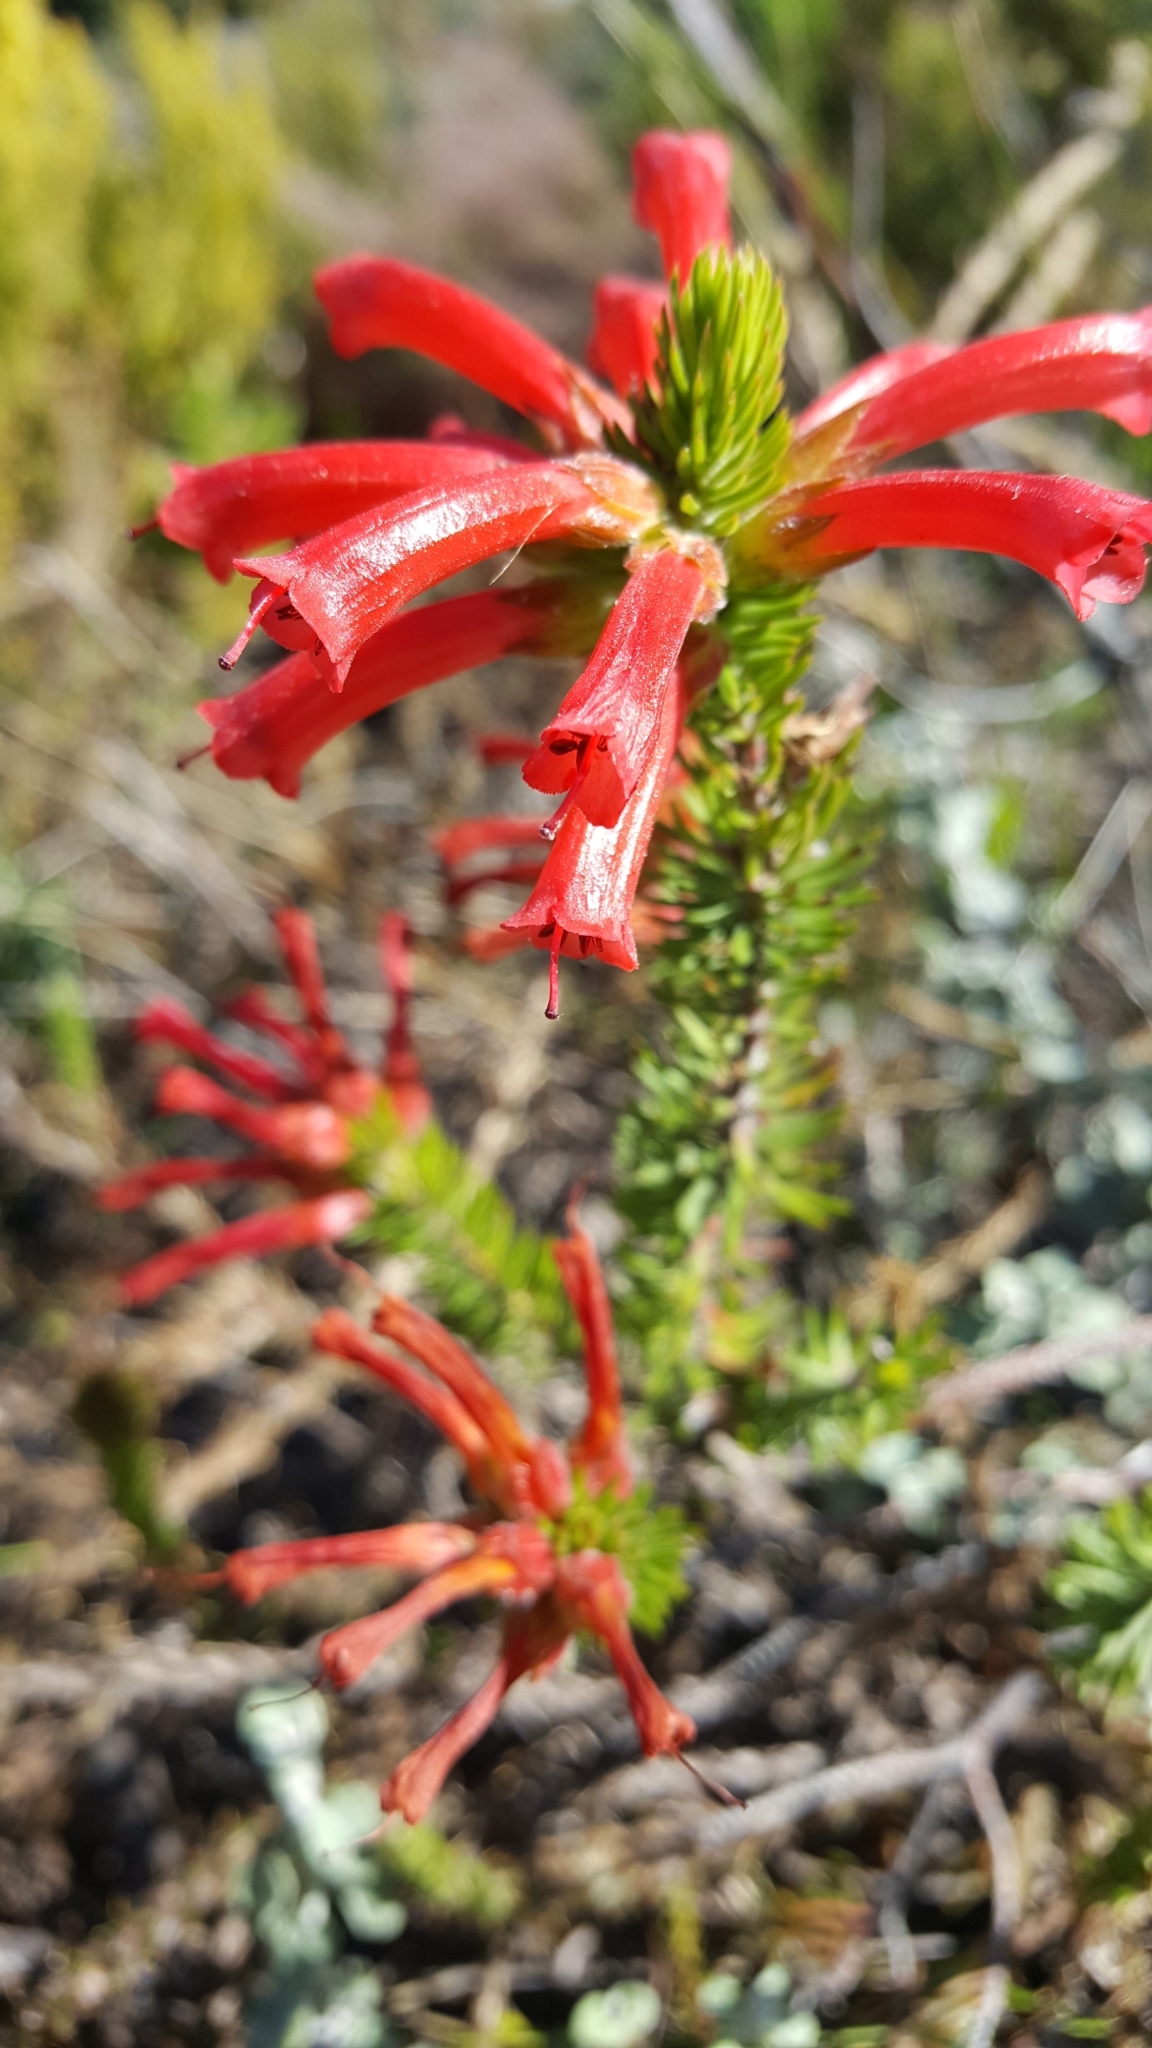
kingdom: Plantae
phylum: Tracheophyta
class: Magnoliopsida
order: Ericales
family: Ericaceae
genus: Erica
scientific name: Erica abietina
